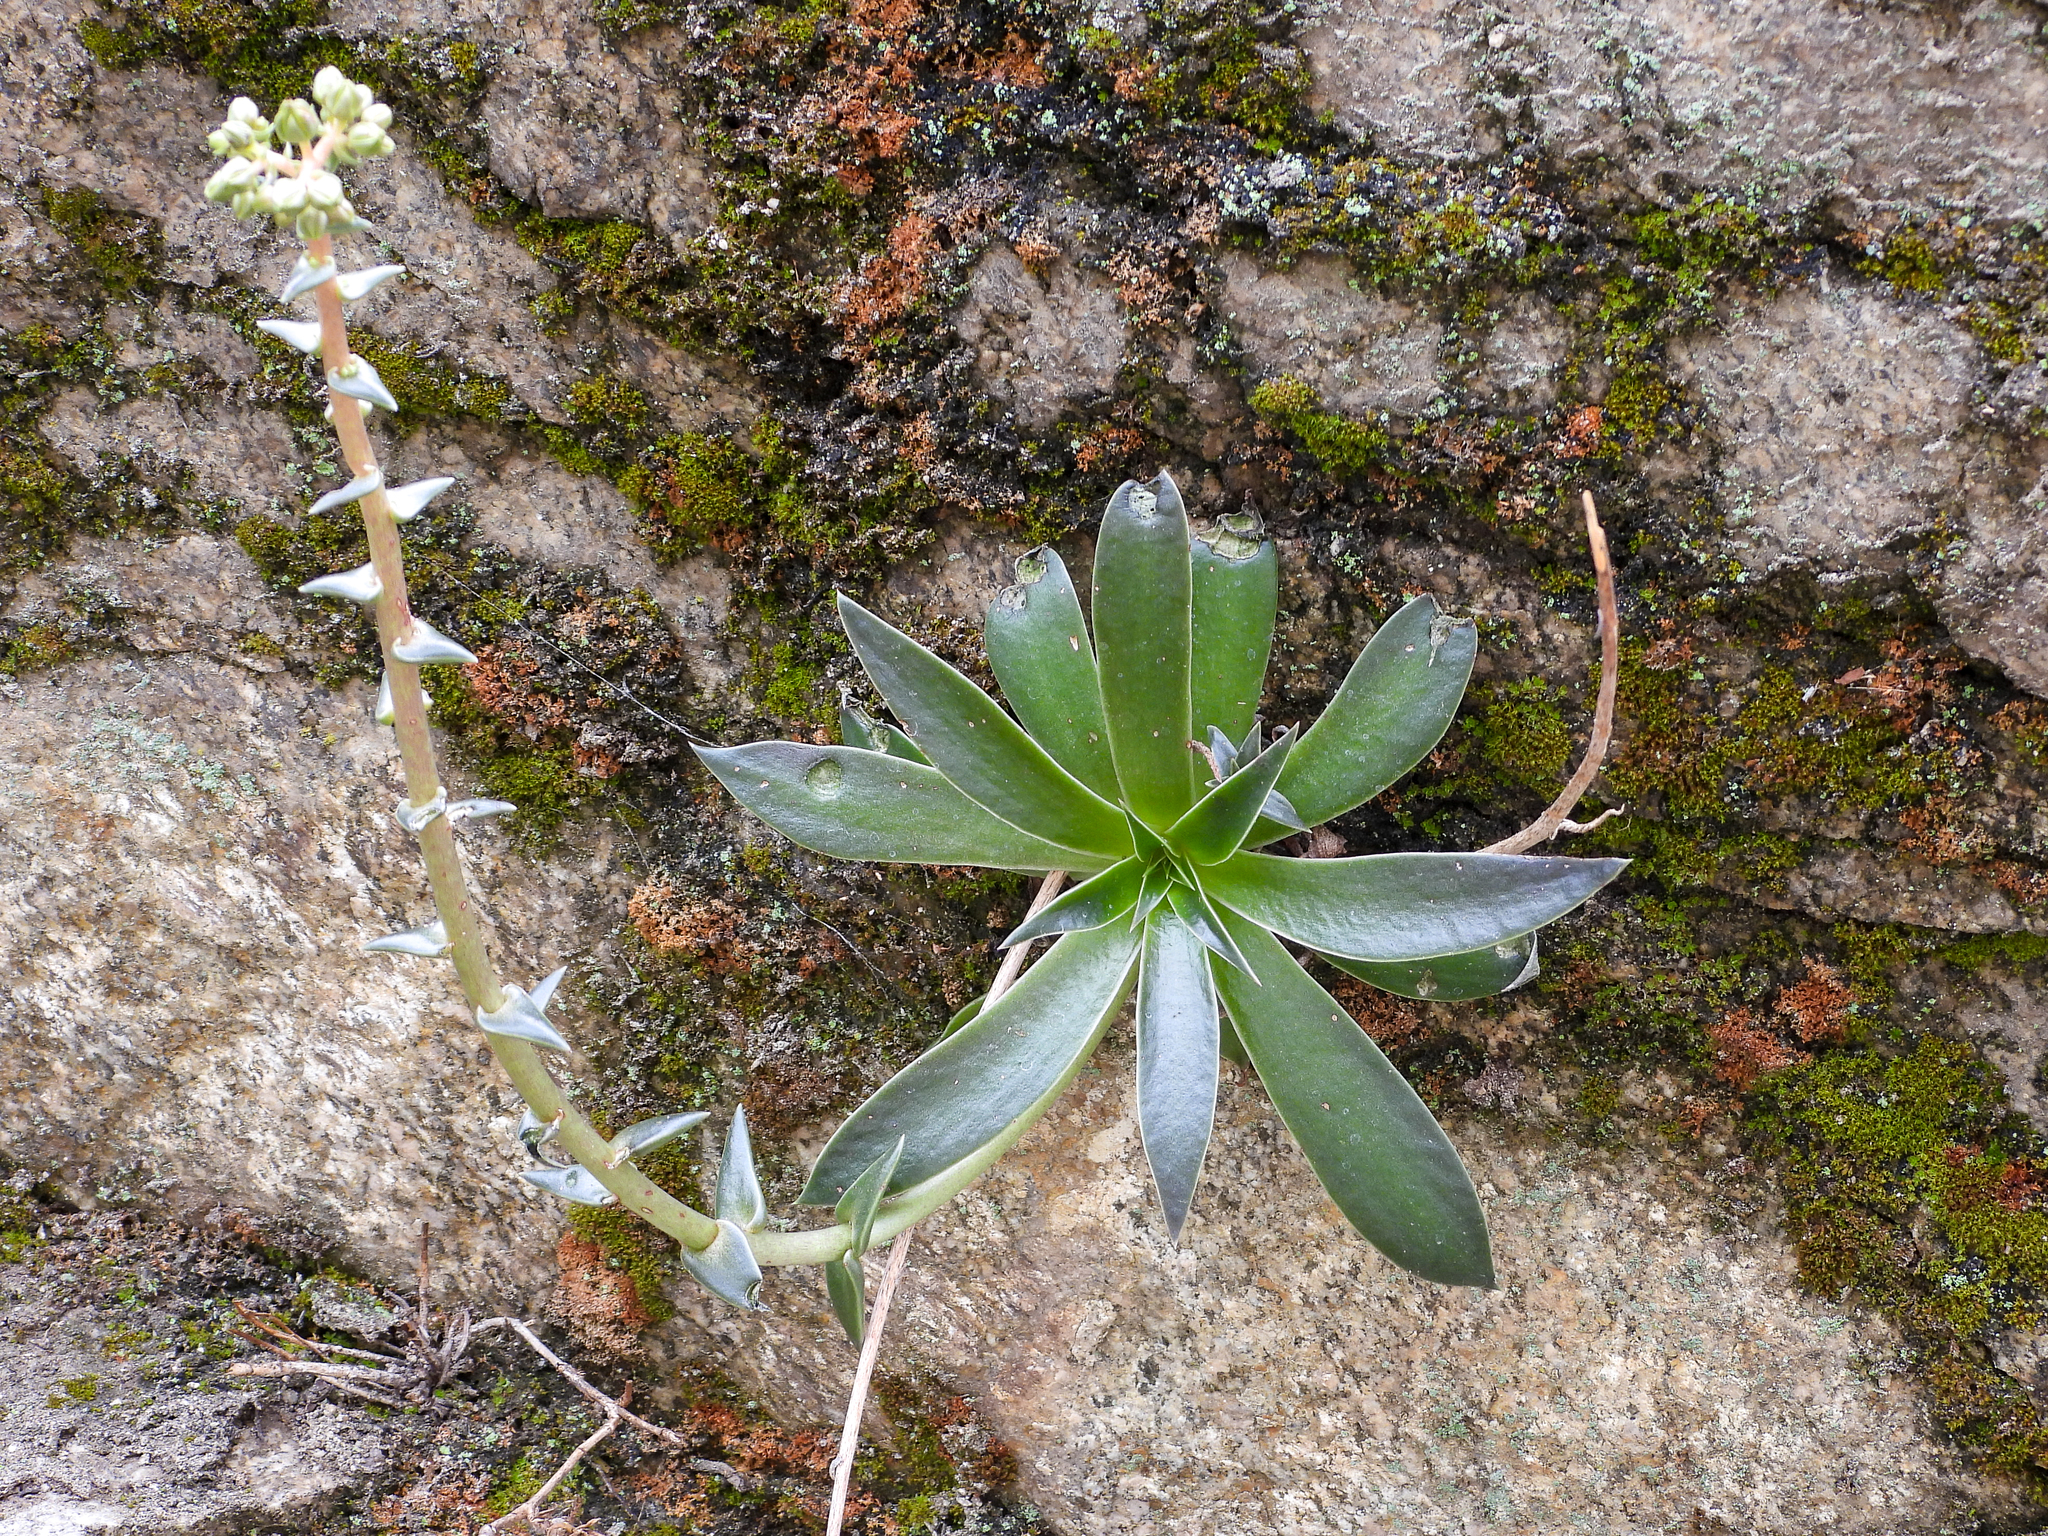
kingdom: Plantae
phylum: Tracheophyta
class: Magnoliopsida
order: Saxifragales
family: Crassulaceae
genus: Dudleya
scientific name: Dudleya lanceolata
